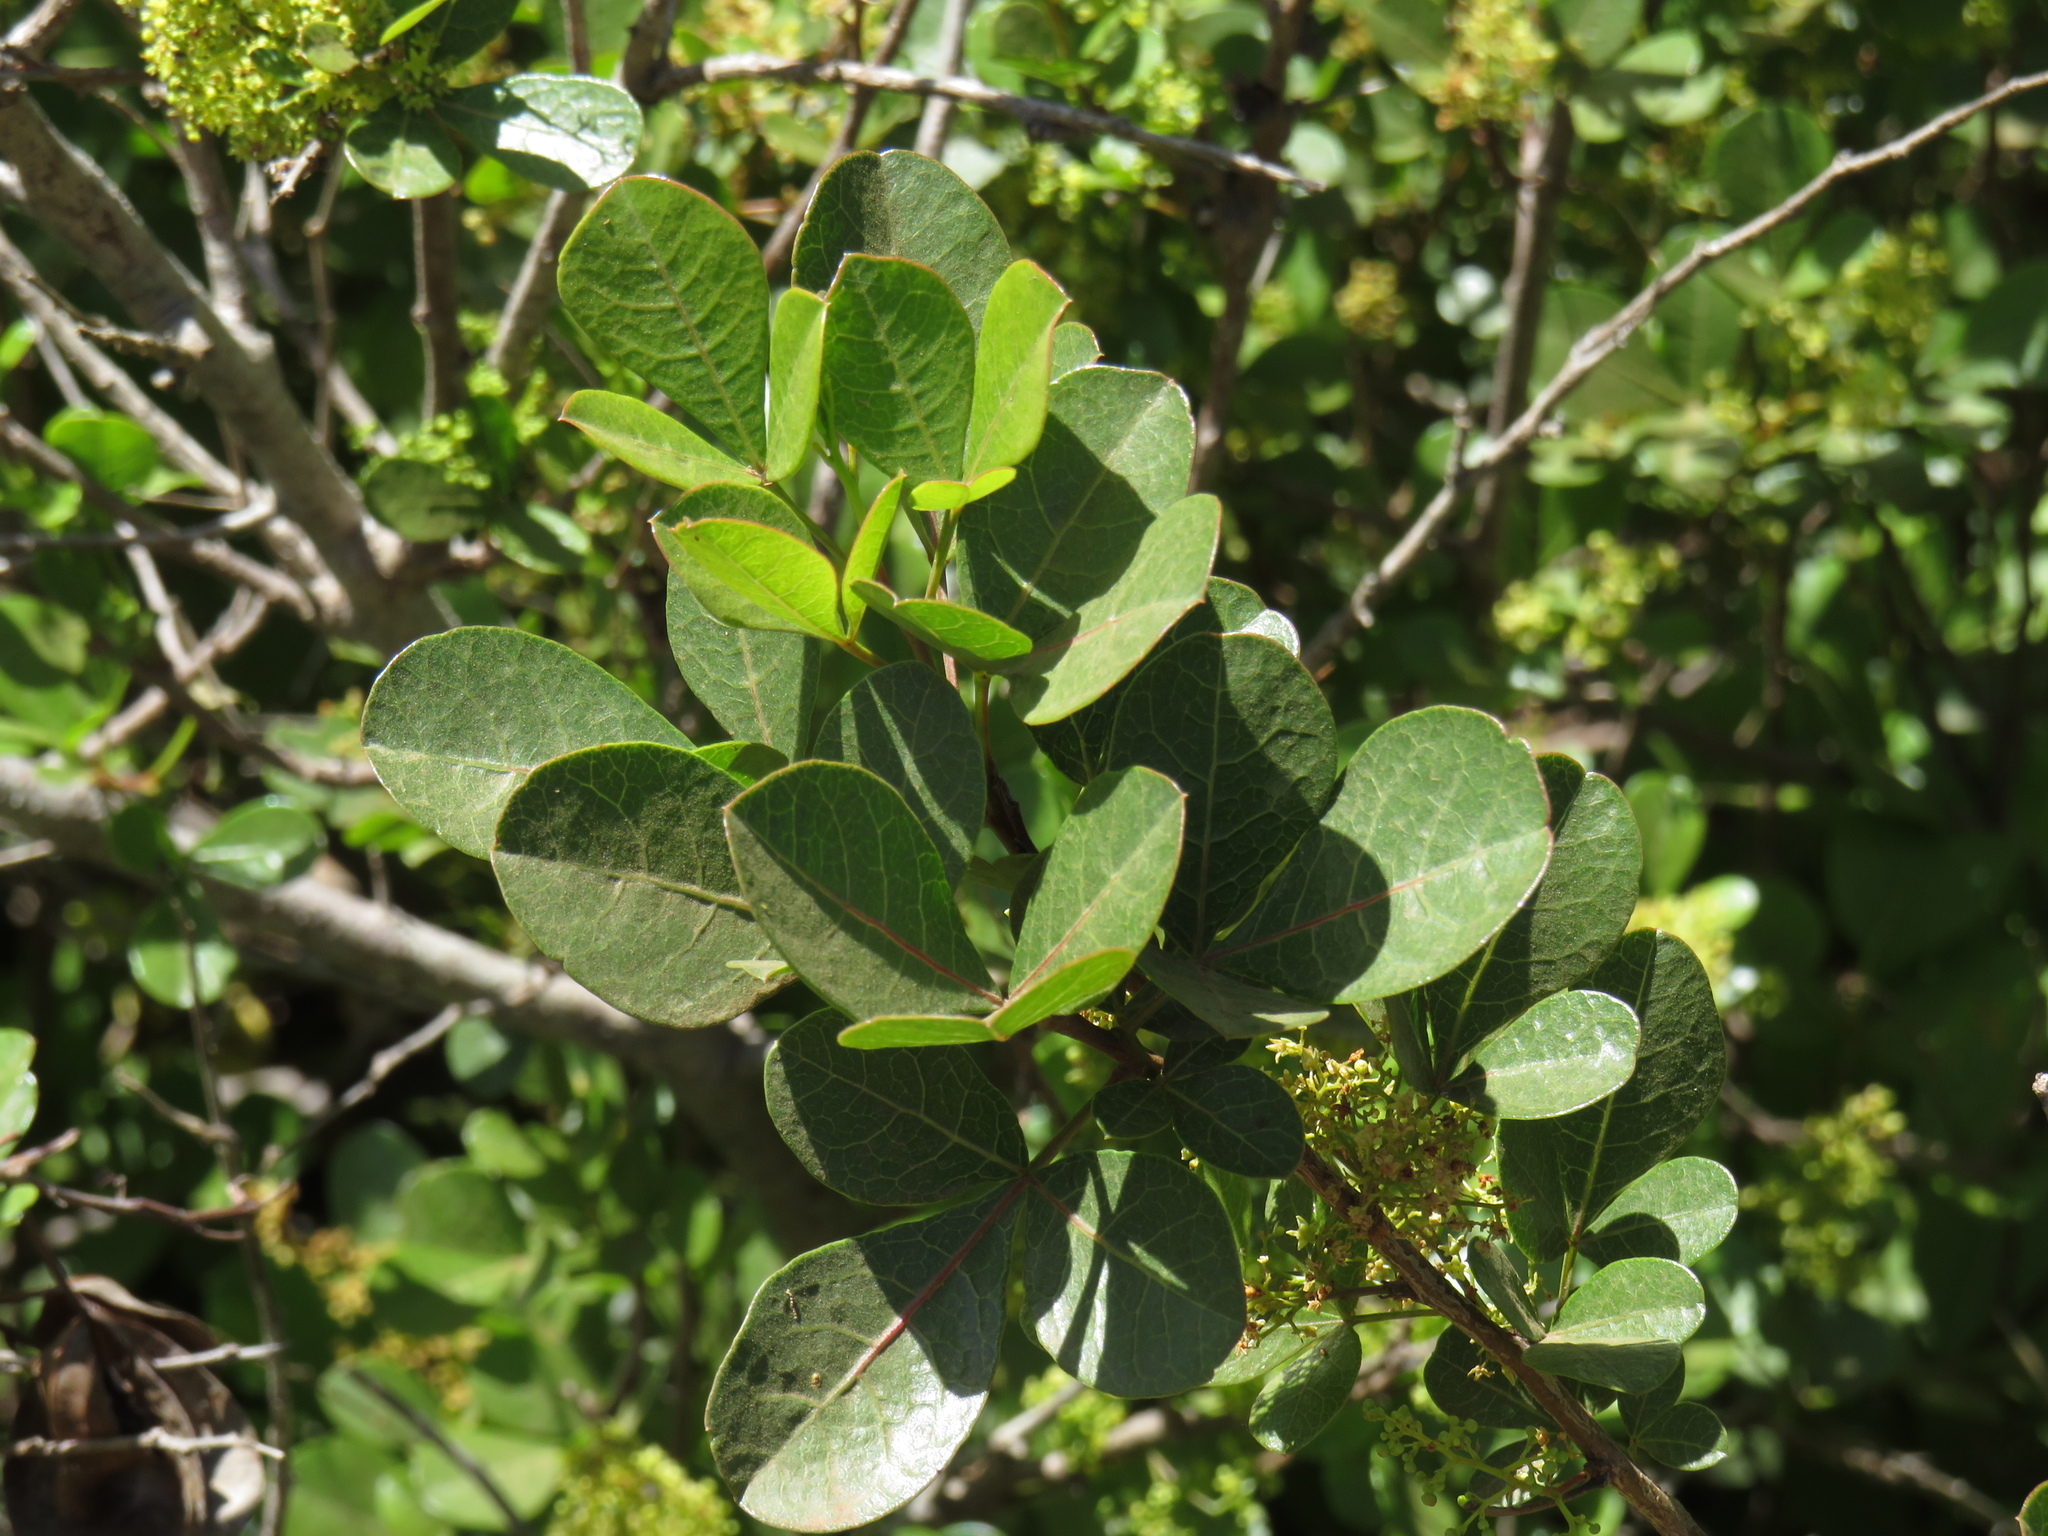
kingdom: Plantae
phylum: Tracheophyta
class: Magnoliopsida
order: Sapindales
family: Anacardiaceae
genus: Searsia
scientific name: Searsia laevigata
